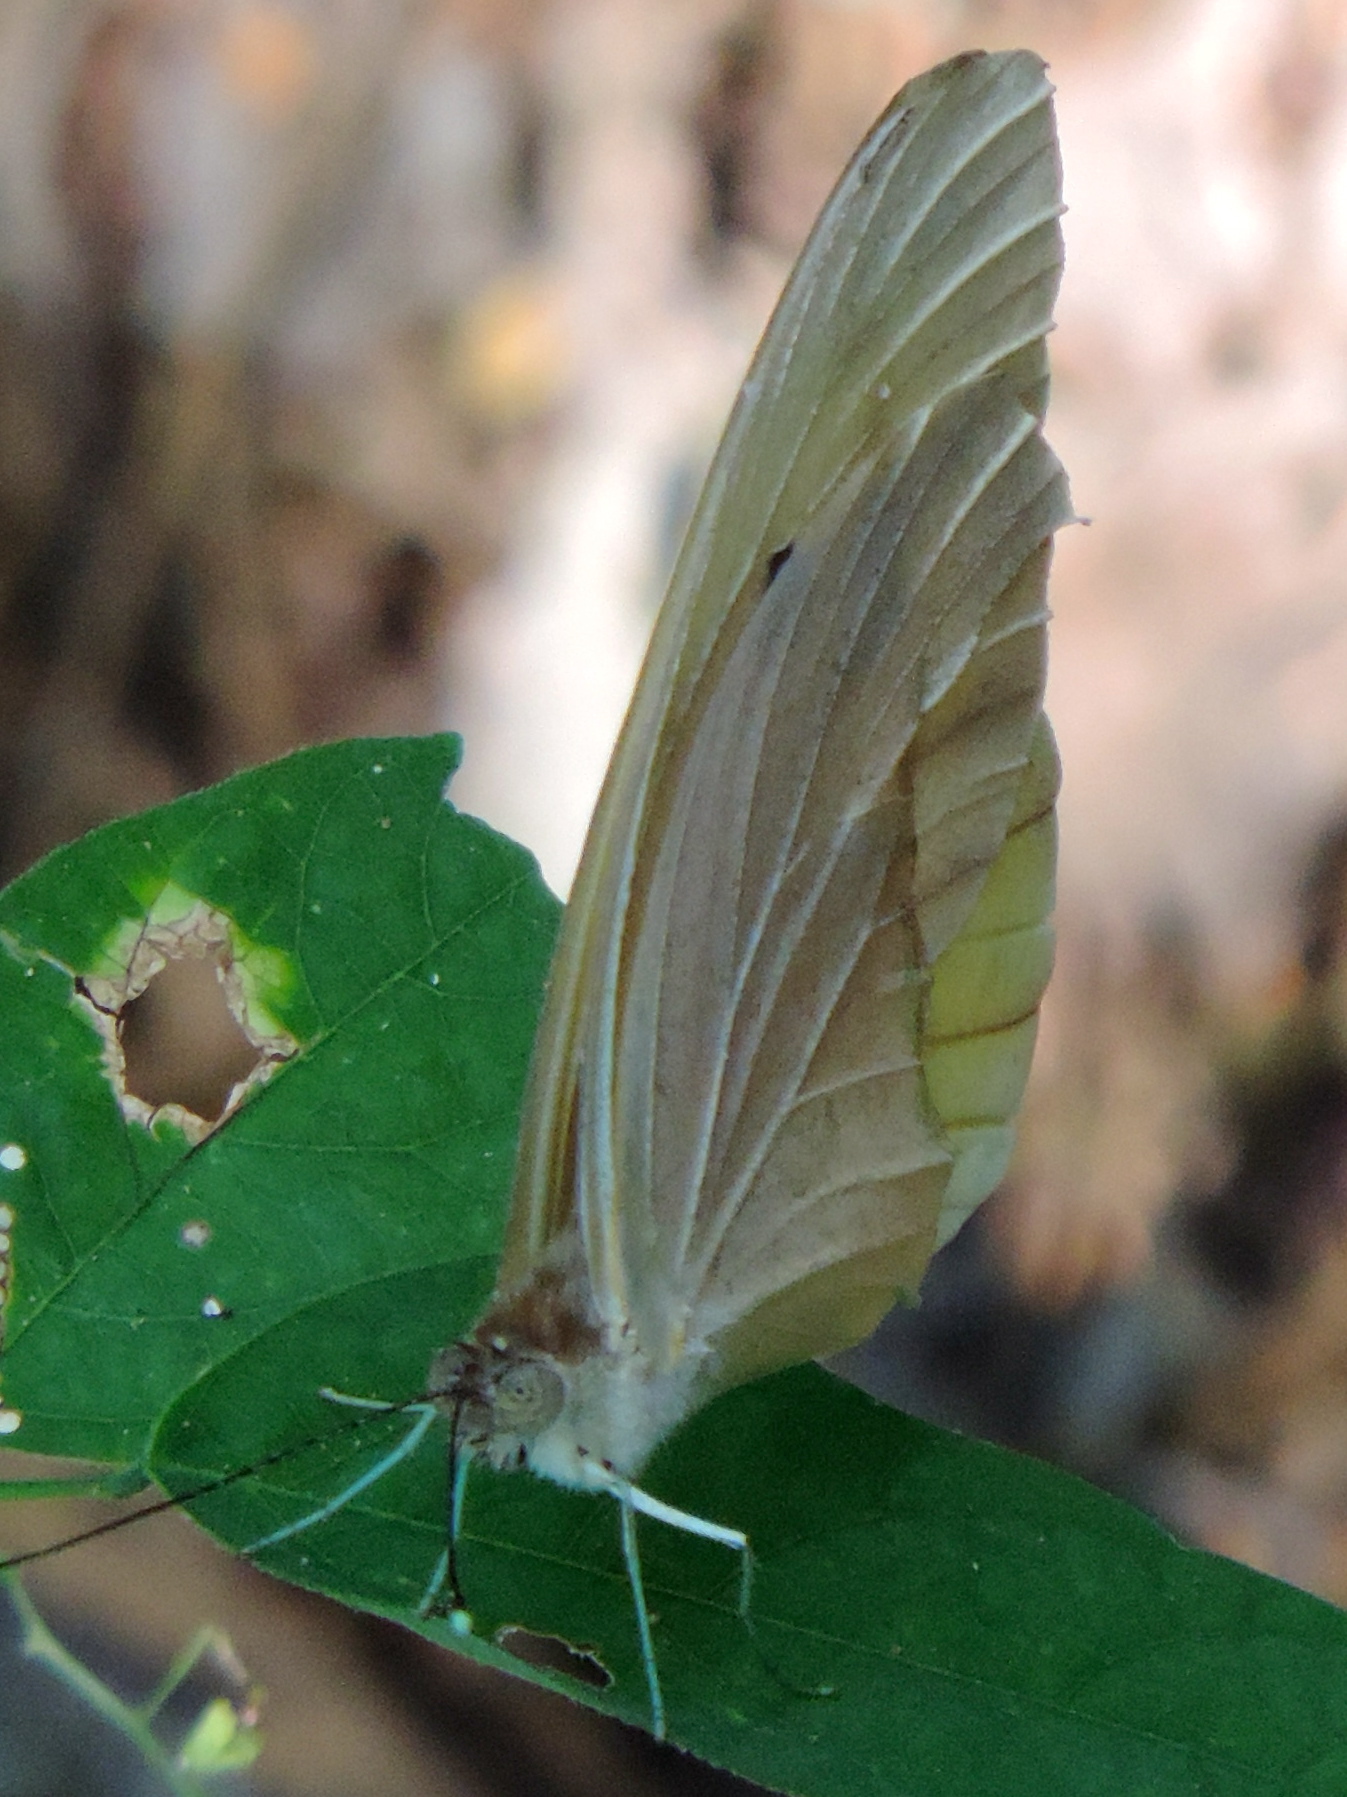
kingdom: Animalia
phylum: Arthropoda
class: Insecta
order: Lepidoptera
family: Pieridae
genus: Ganyra
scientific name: Ganyra josephina
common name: Giant white
